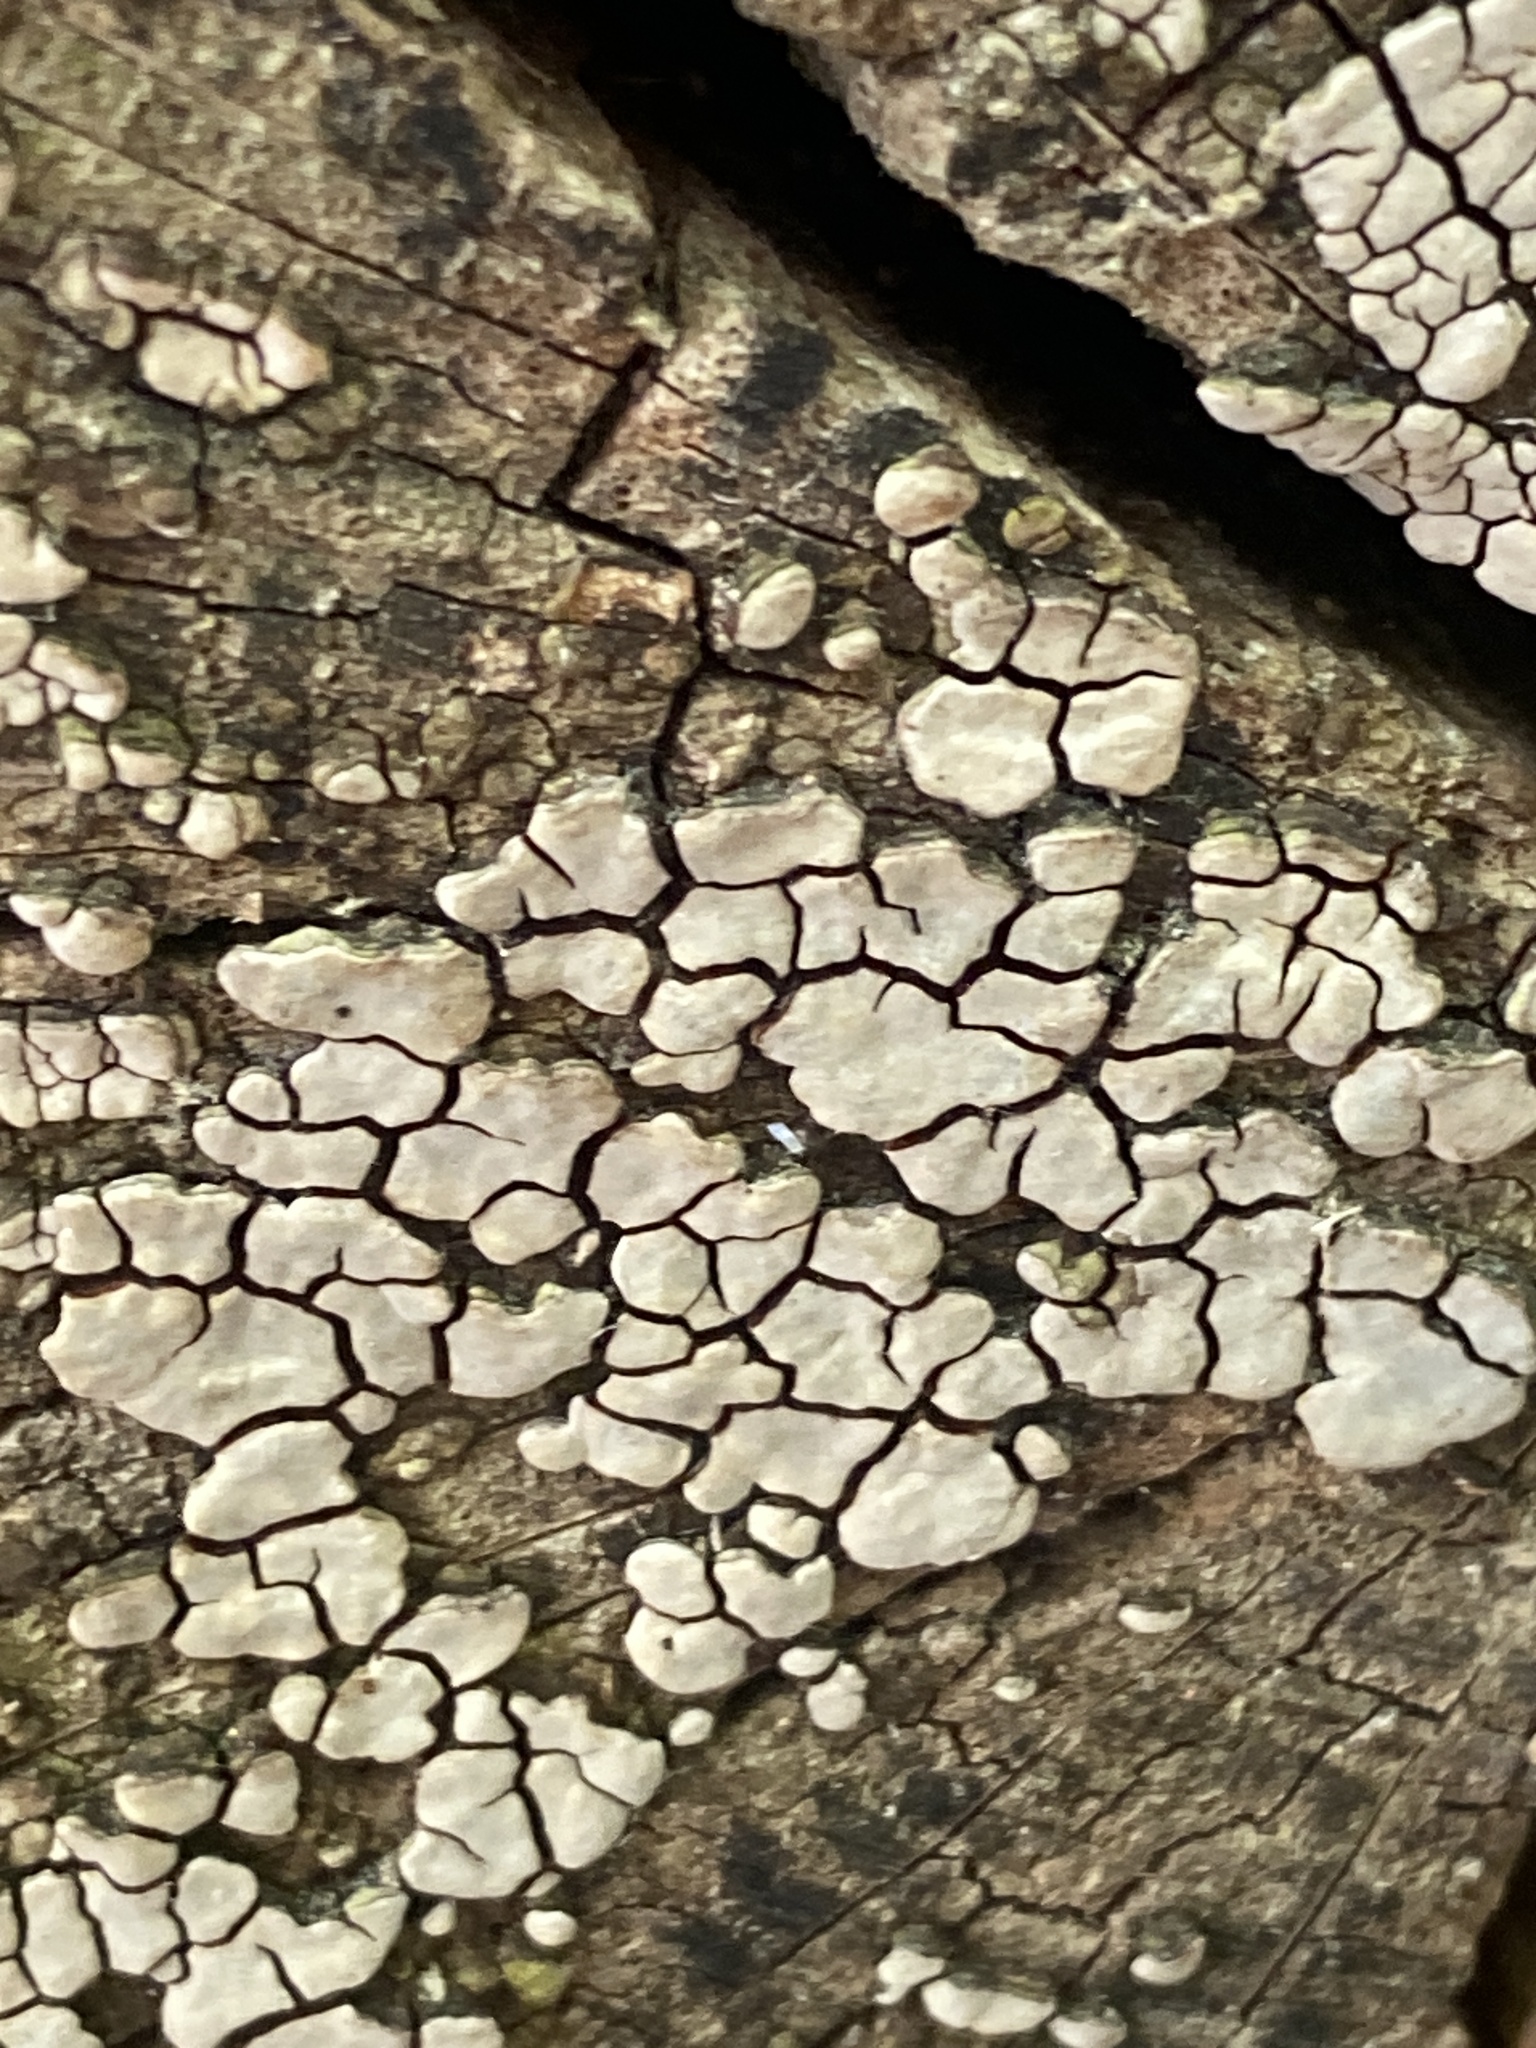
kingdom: Fungi
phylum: Basidiomycota
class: Agaricomycetes
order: Russulales
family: Stereaceae
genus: Xylobolus
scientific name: Xylobolus frustulatus
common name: Ceramic parchment
